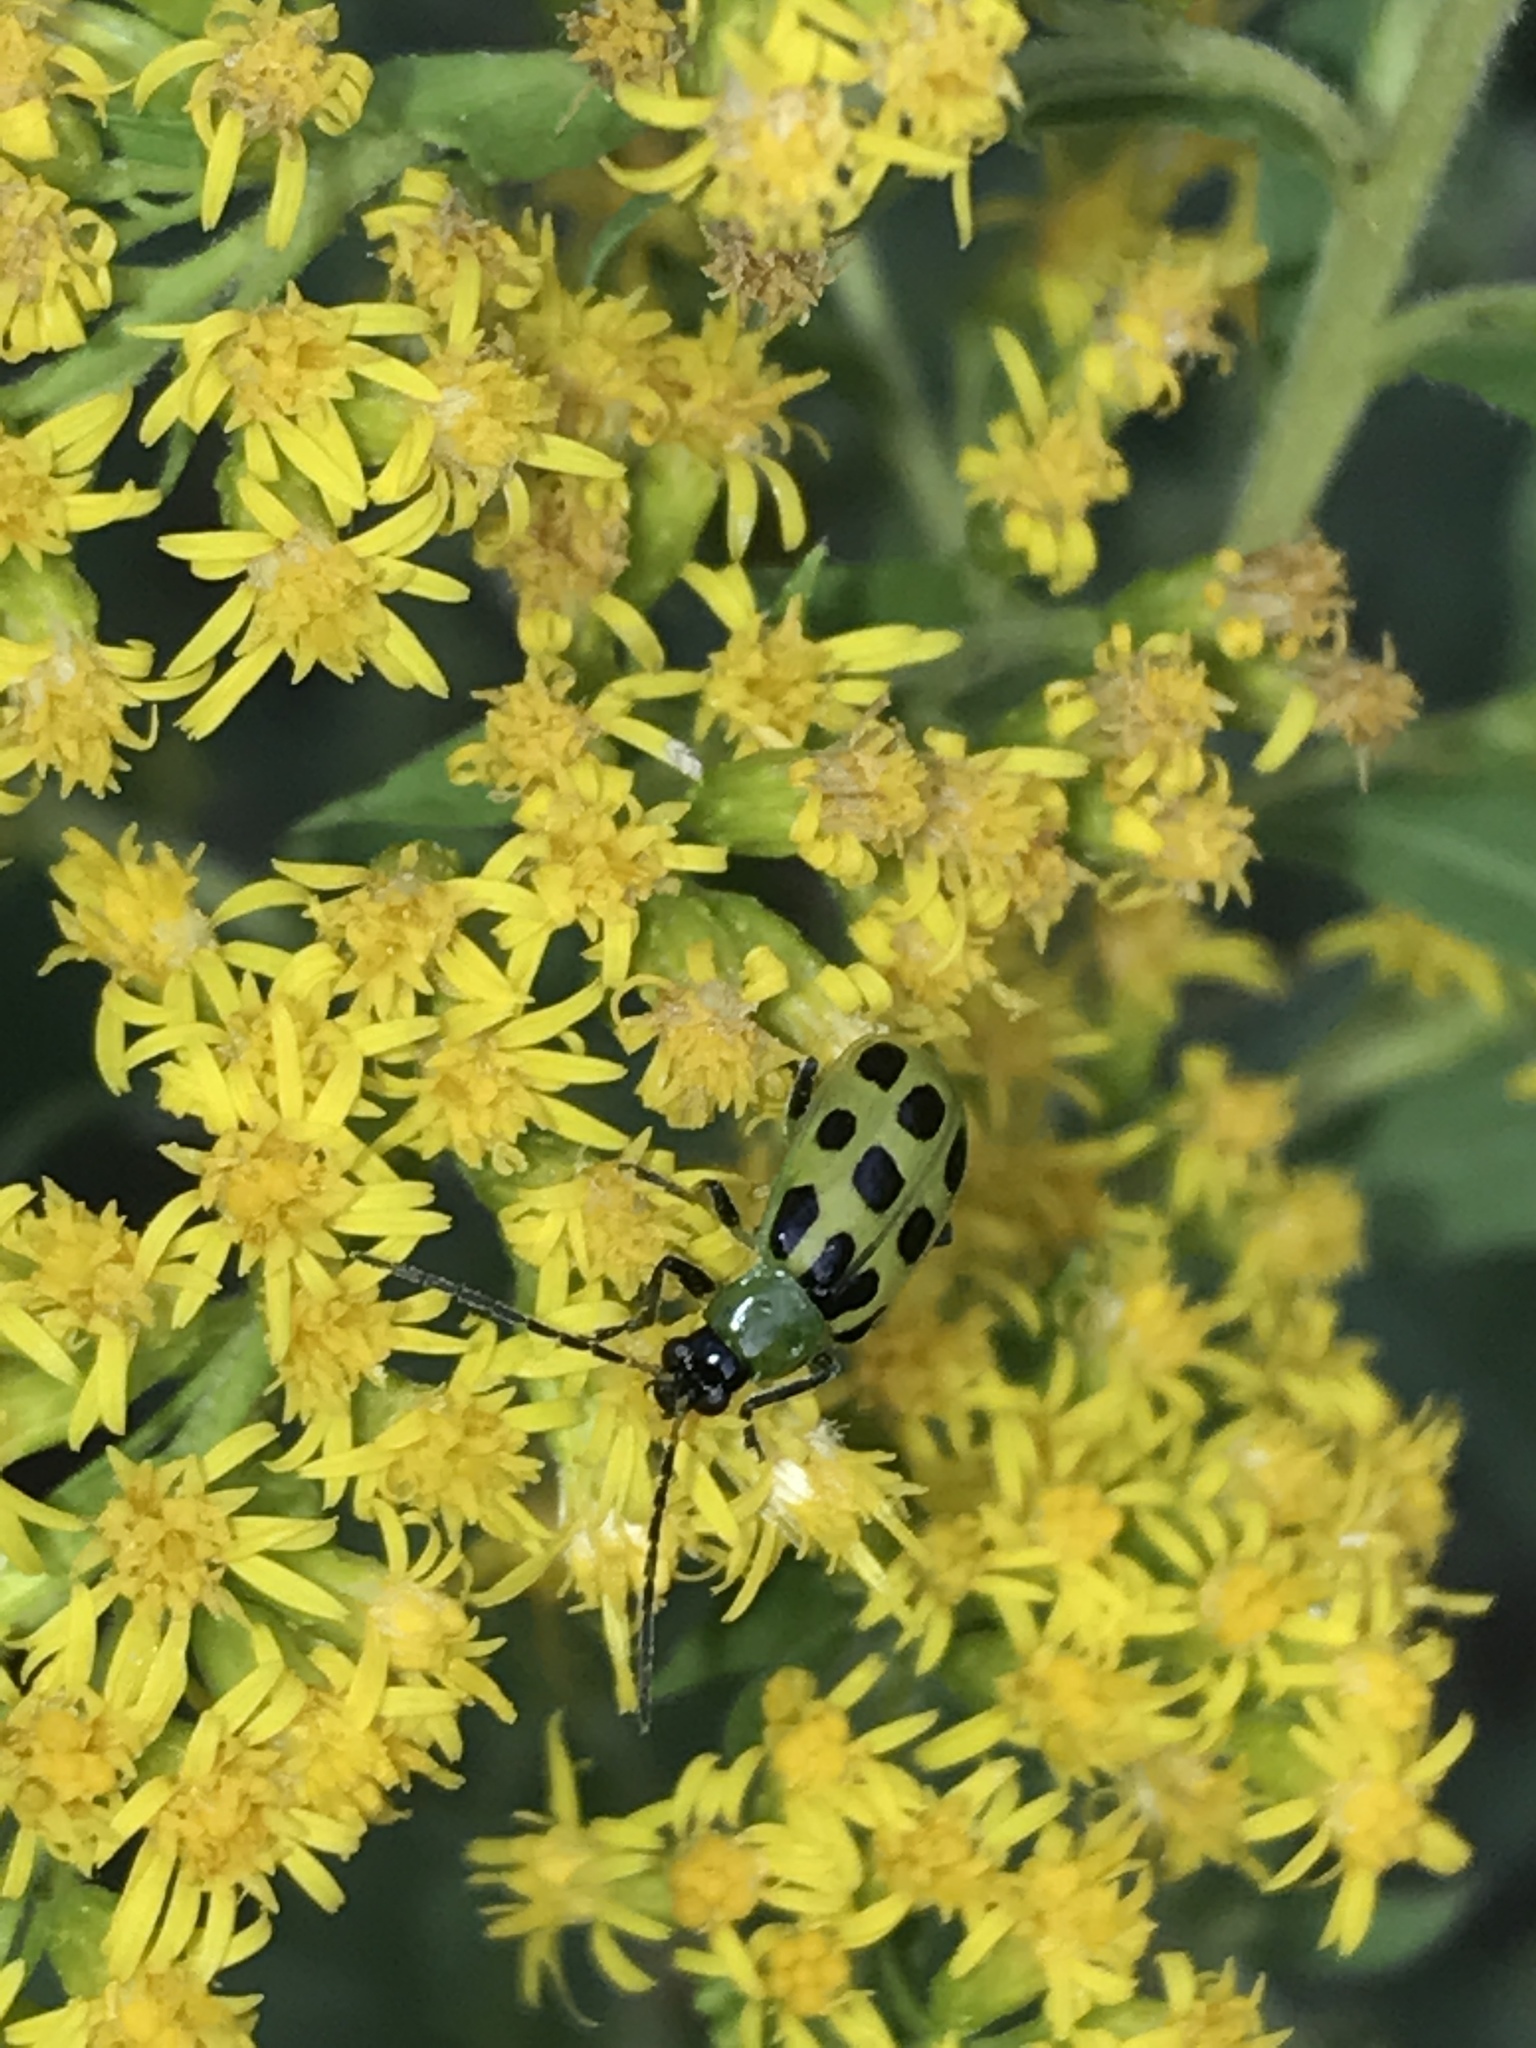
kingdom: Animalia
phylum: Arthropoda
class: Insecta
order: Coleoptera
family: Chrysomelidae
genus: Diabrotica
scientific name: Diabrotica undecimpunctata
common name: Spotted cucumber beetle
